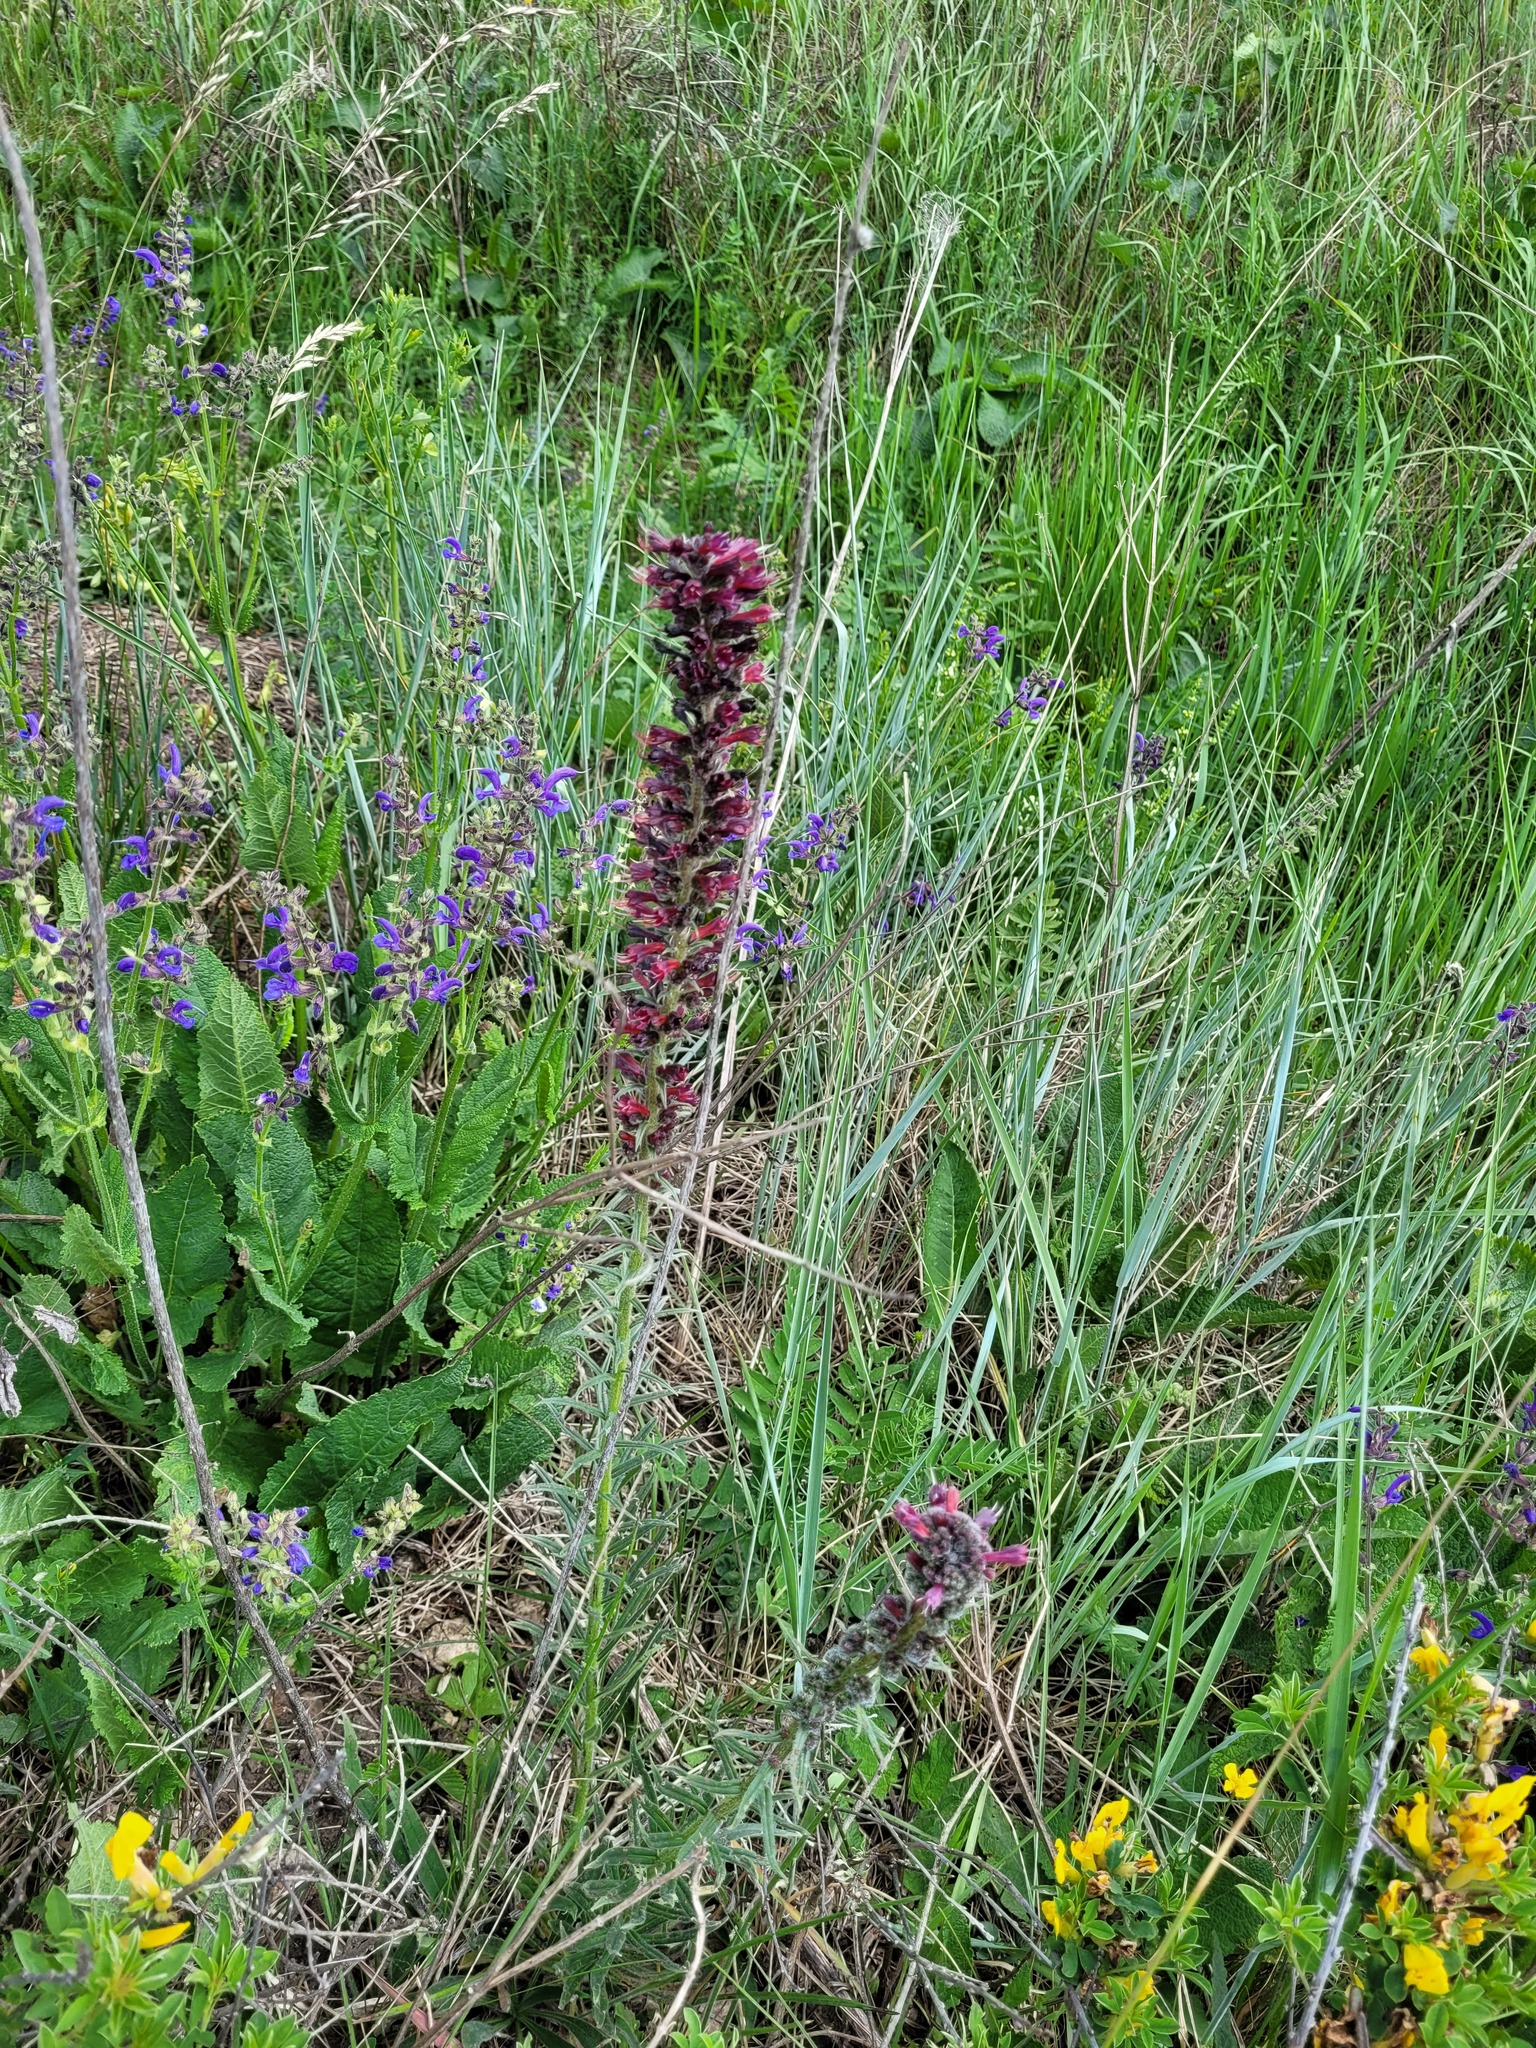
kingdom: Plantae
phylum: Tracheophyta
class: Magnoliopsida
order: Boraginales
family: Boraginaceae
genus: Pontechium
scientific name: Pontechium maculatum
